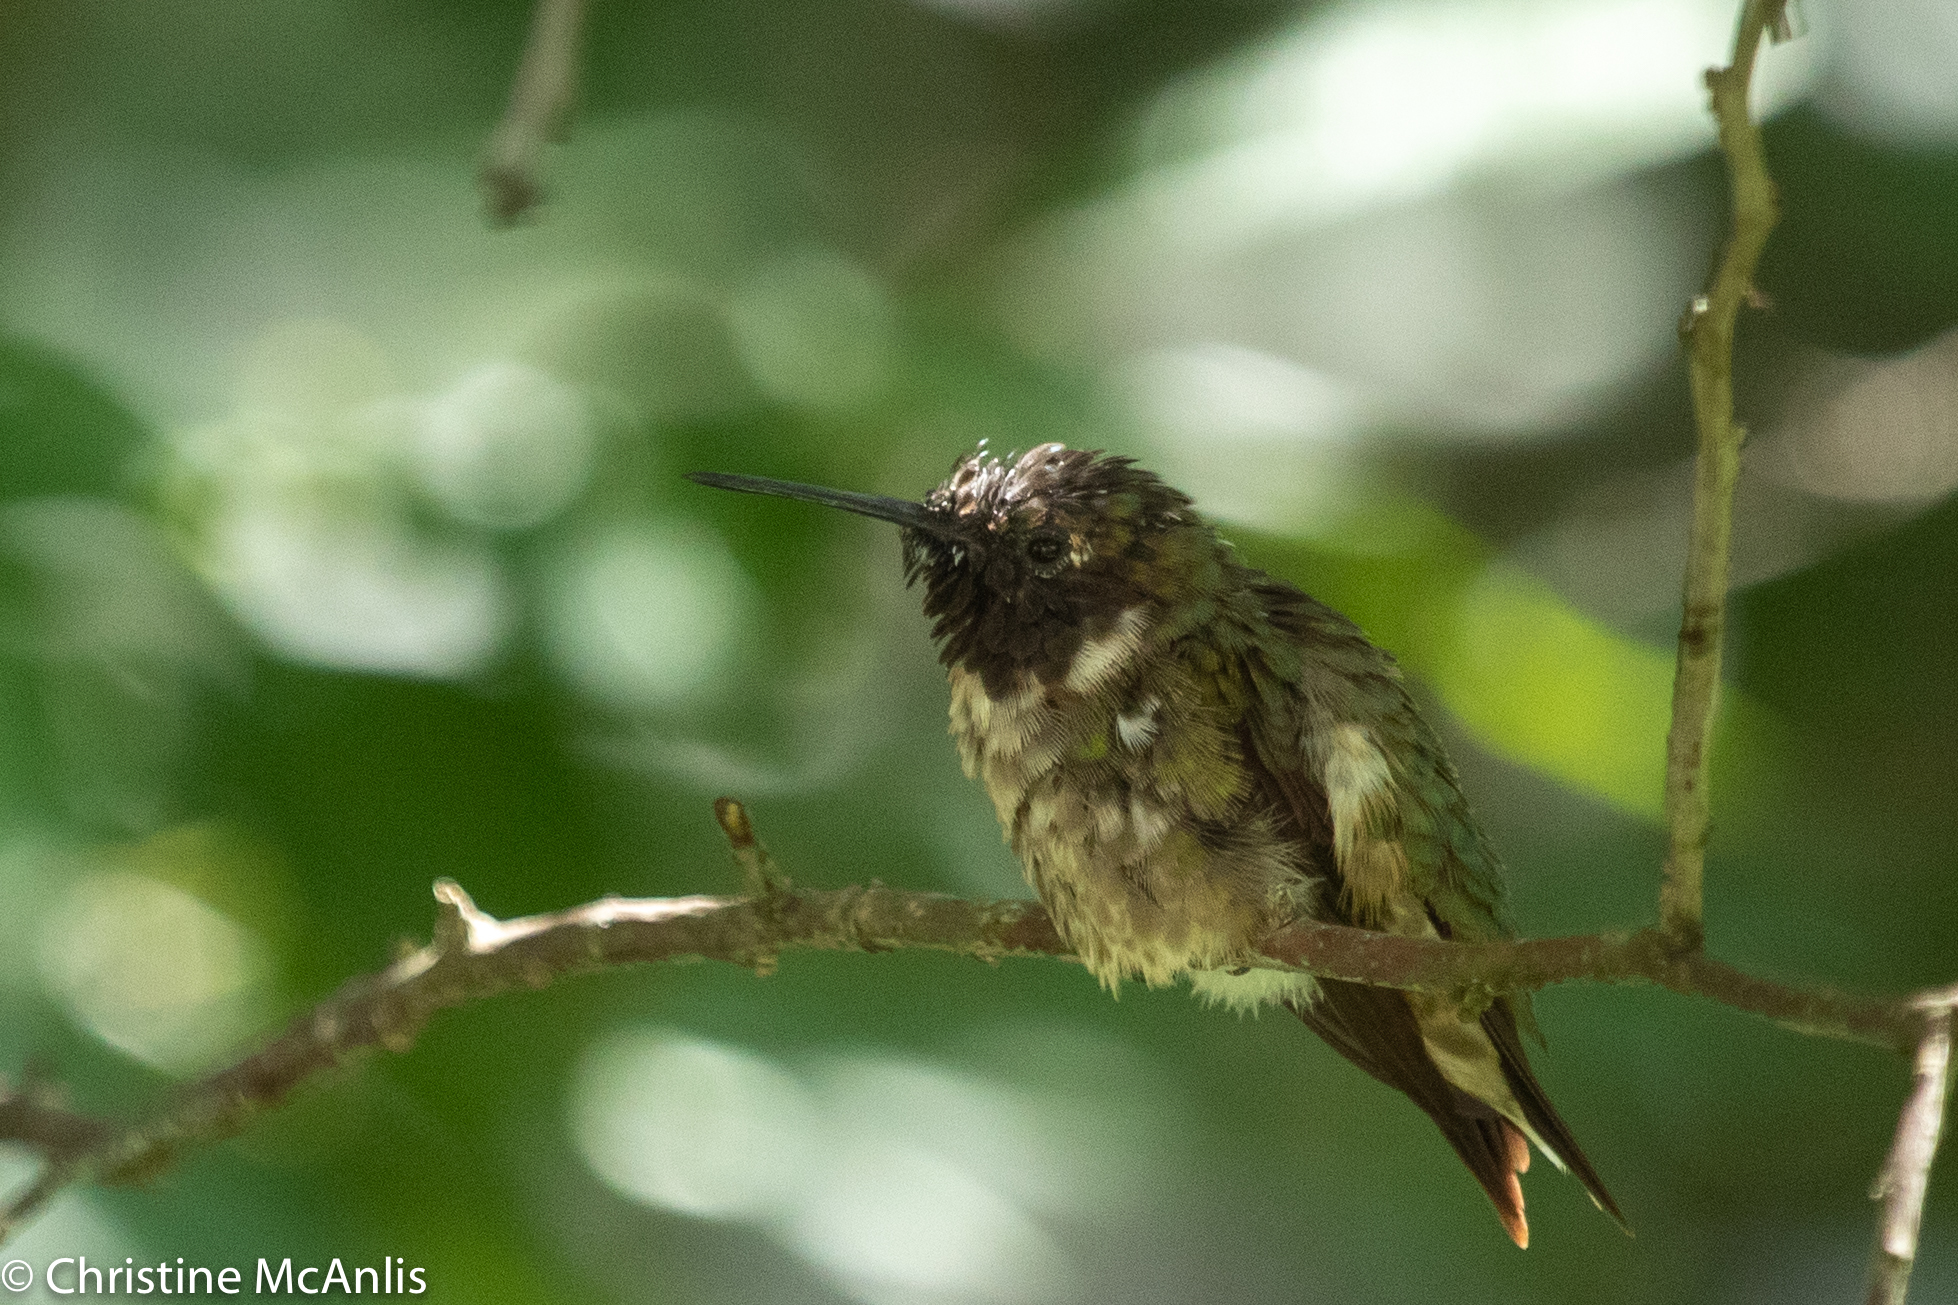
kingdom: Animalia
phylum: Chordata
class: Aves
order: Apodiformes
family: Trochilidae
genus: Archilochus
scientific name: Archilochus colubris
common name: Ruby-throated hummingbird
